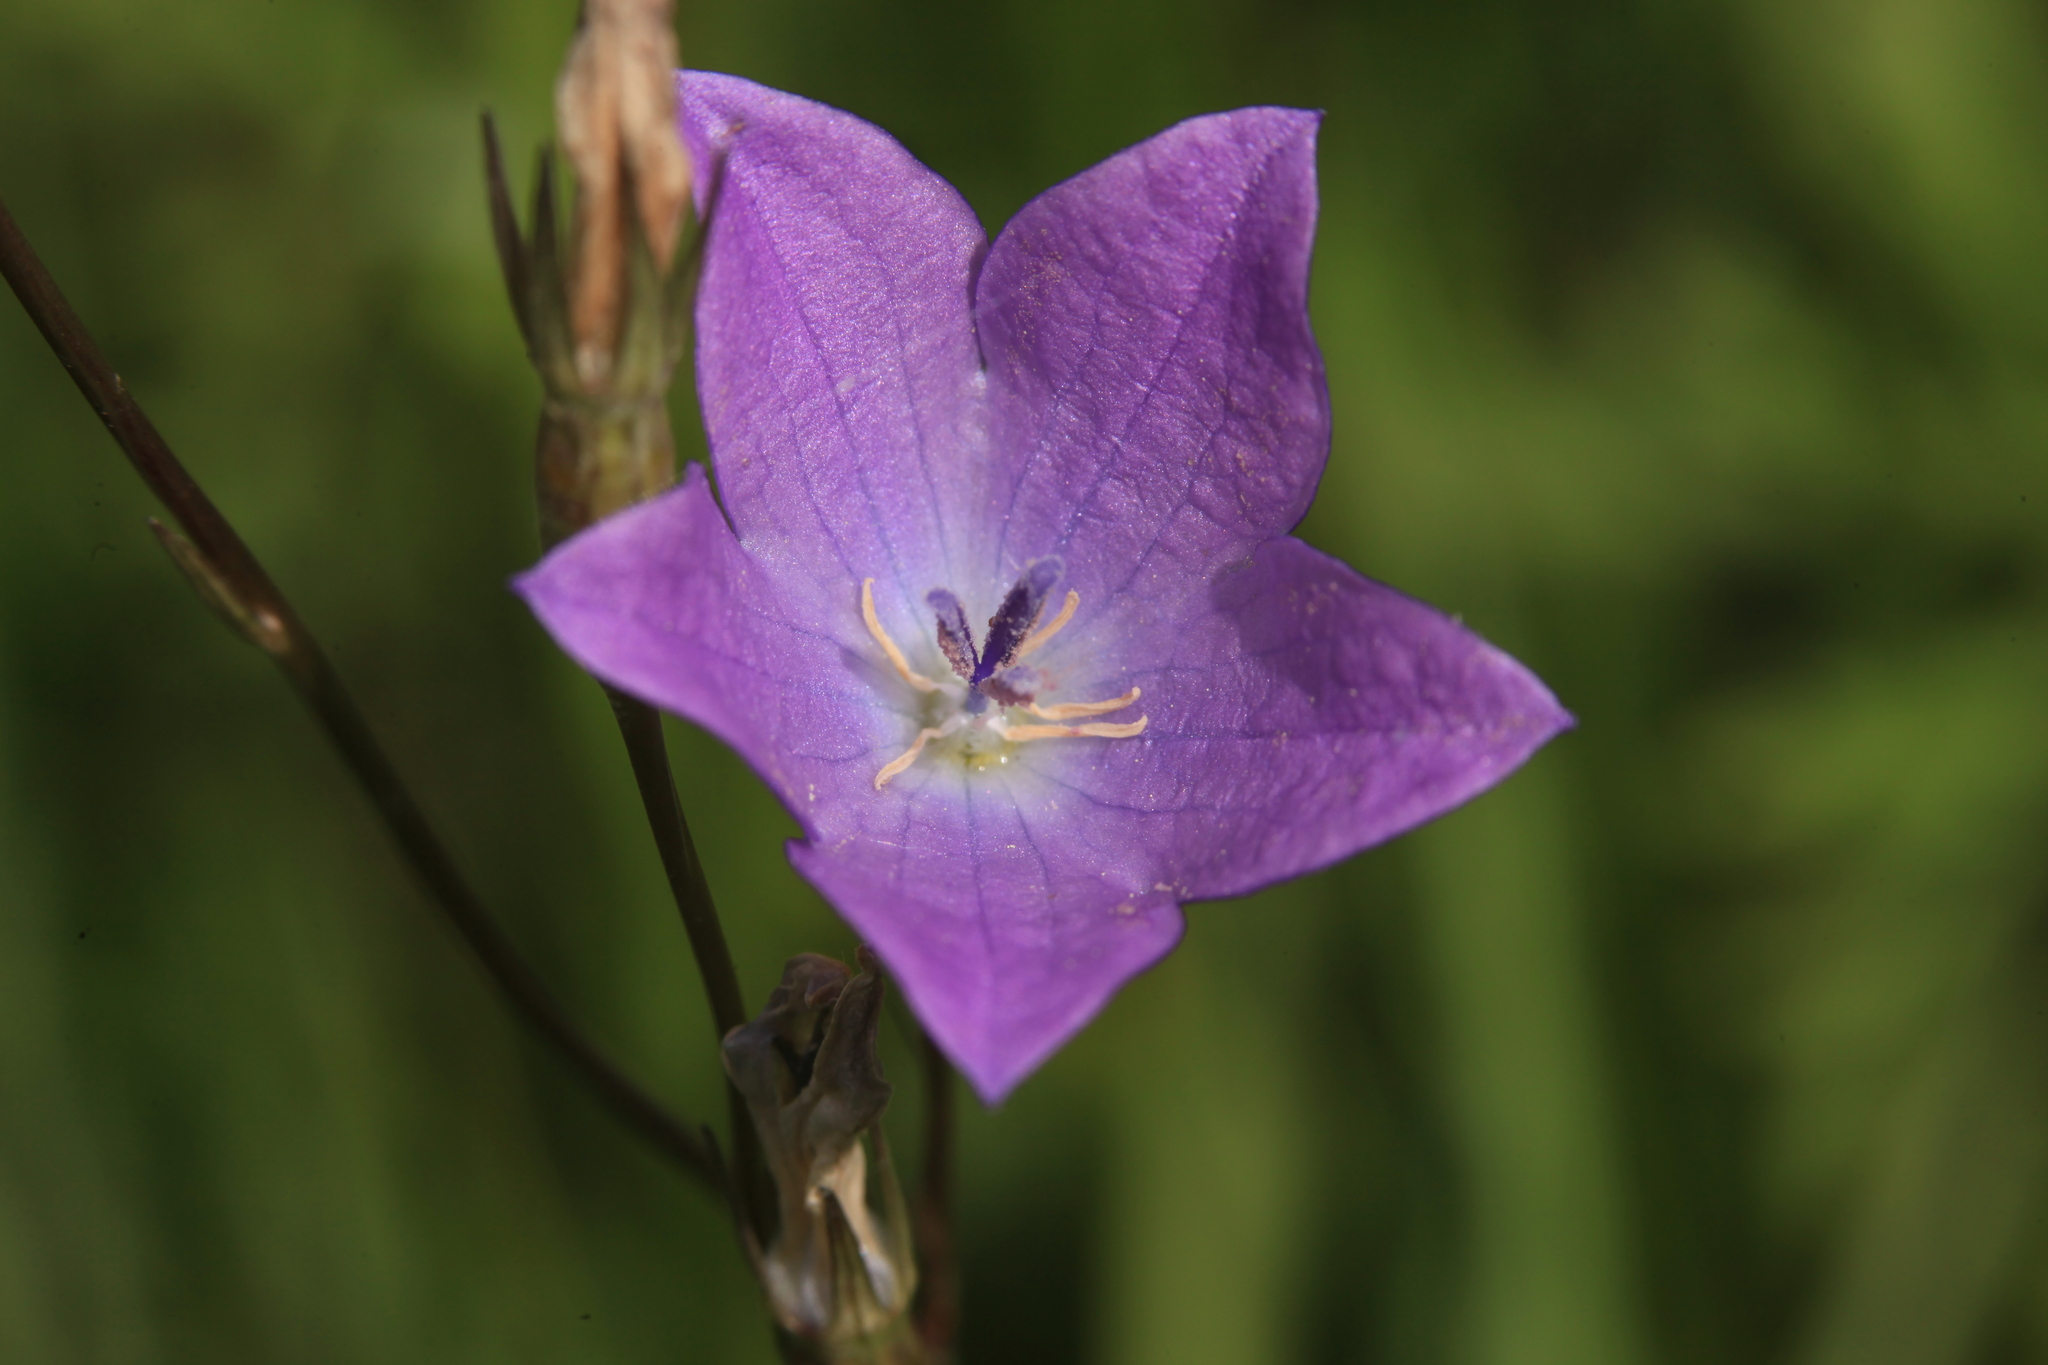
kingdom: Plantae
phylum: Tracheophyta
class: Magnoliopsida
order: Asterales
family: Campanulaceae
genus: Campanula
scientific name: Campanula stevenii
